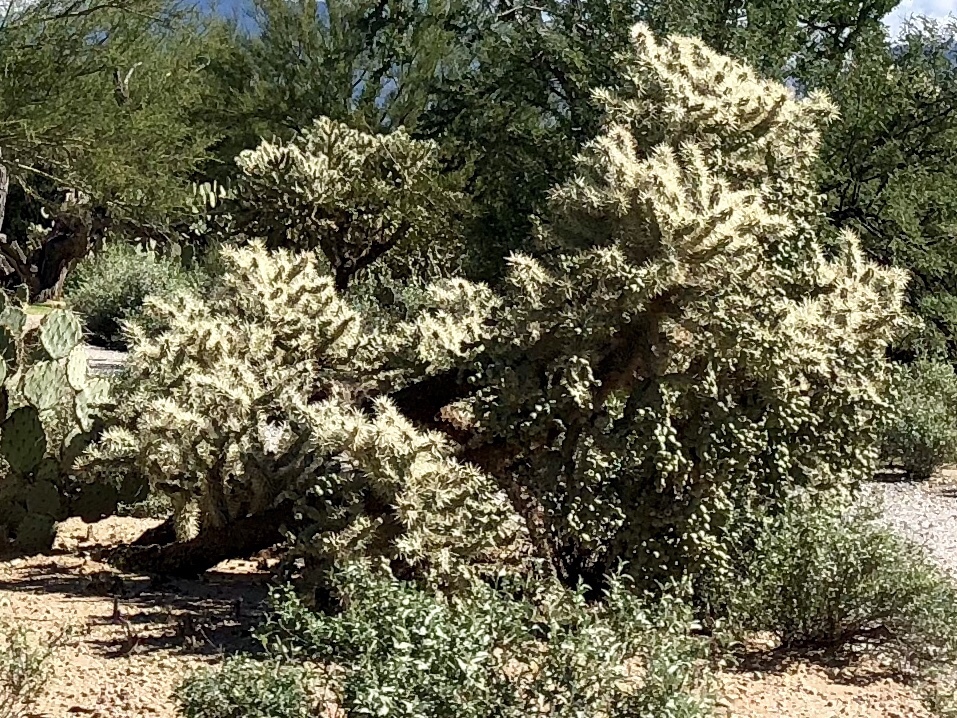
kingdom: Plantae
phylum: Tracheophyta
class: Magnoliopsida
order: Caryophyllales
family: Cactaceae
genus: Cylindropuntia
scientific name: Cylindropuntia fulgida
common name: Jumping cholla
